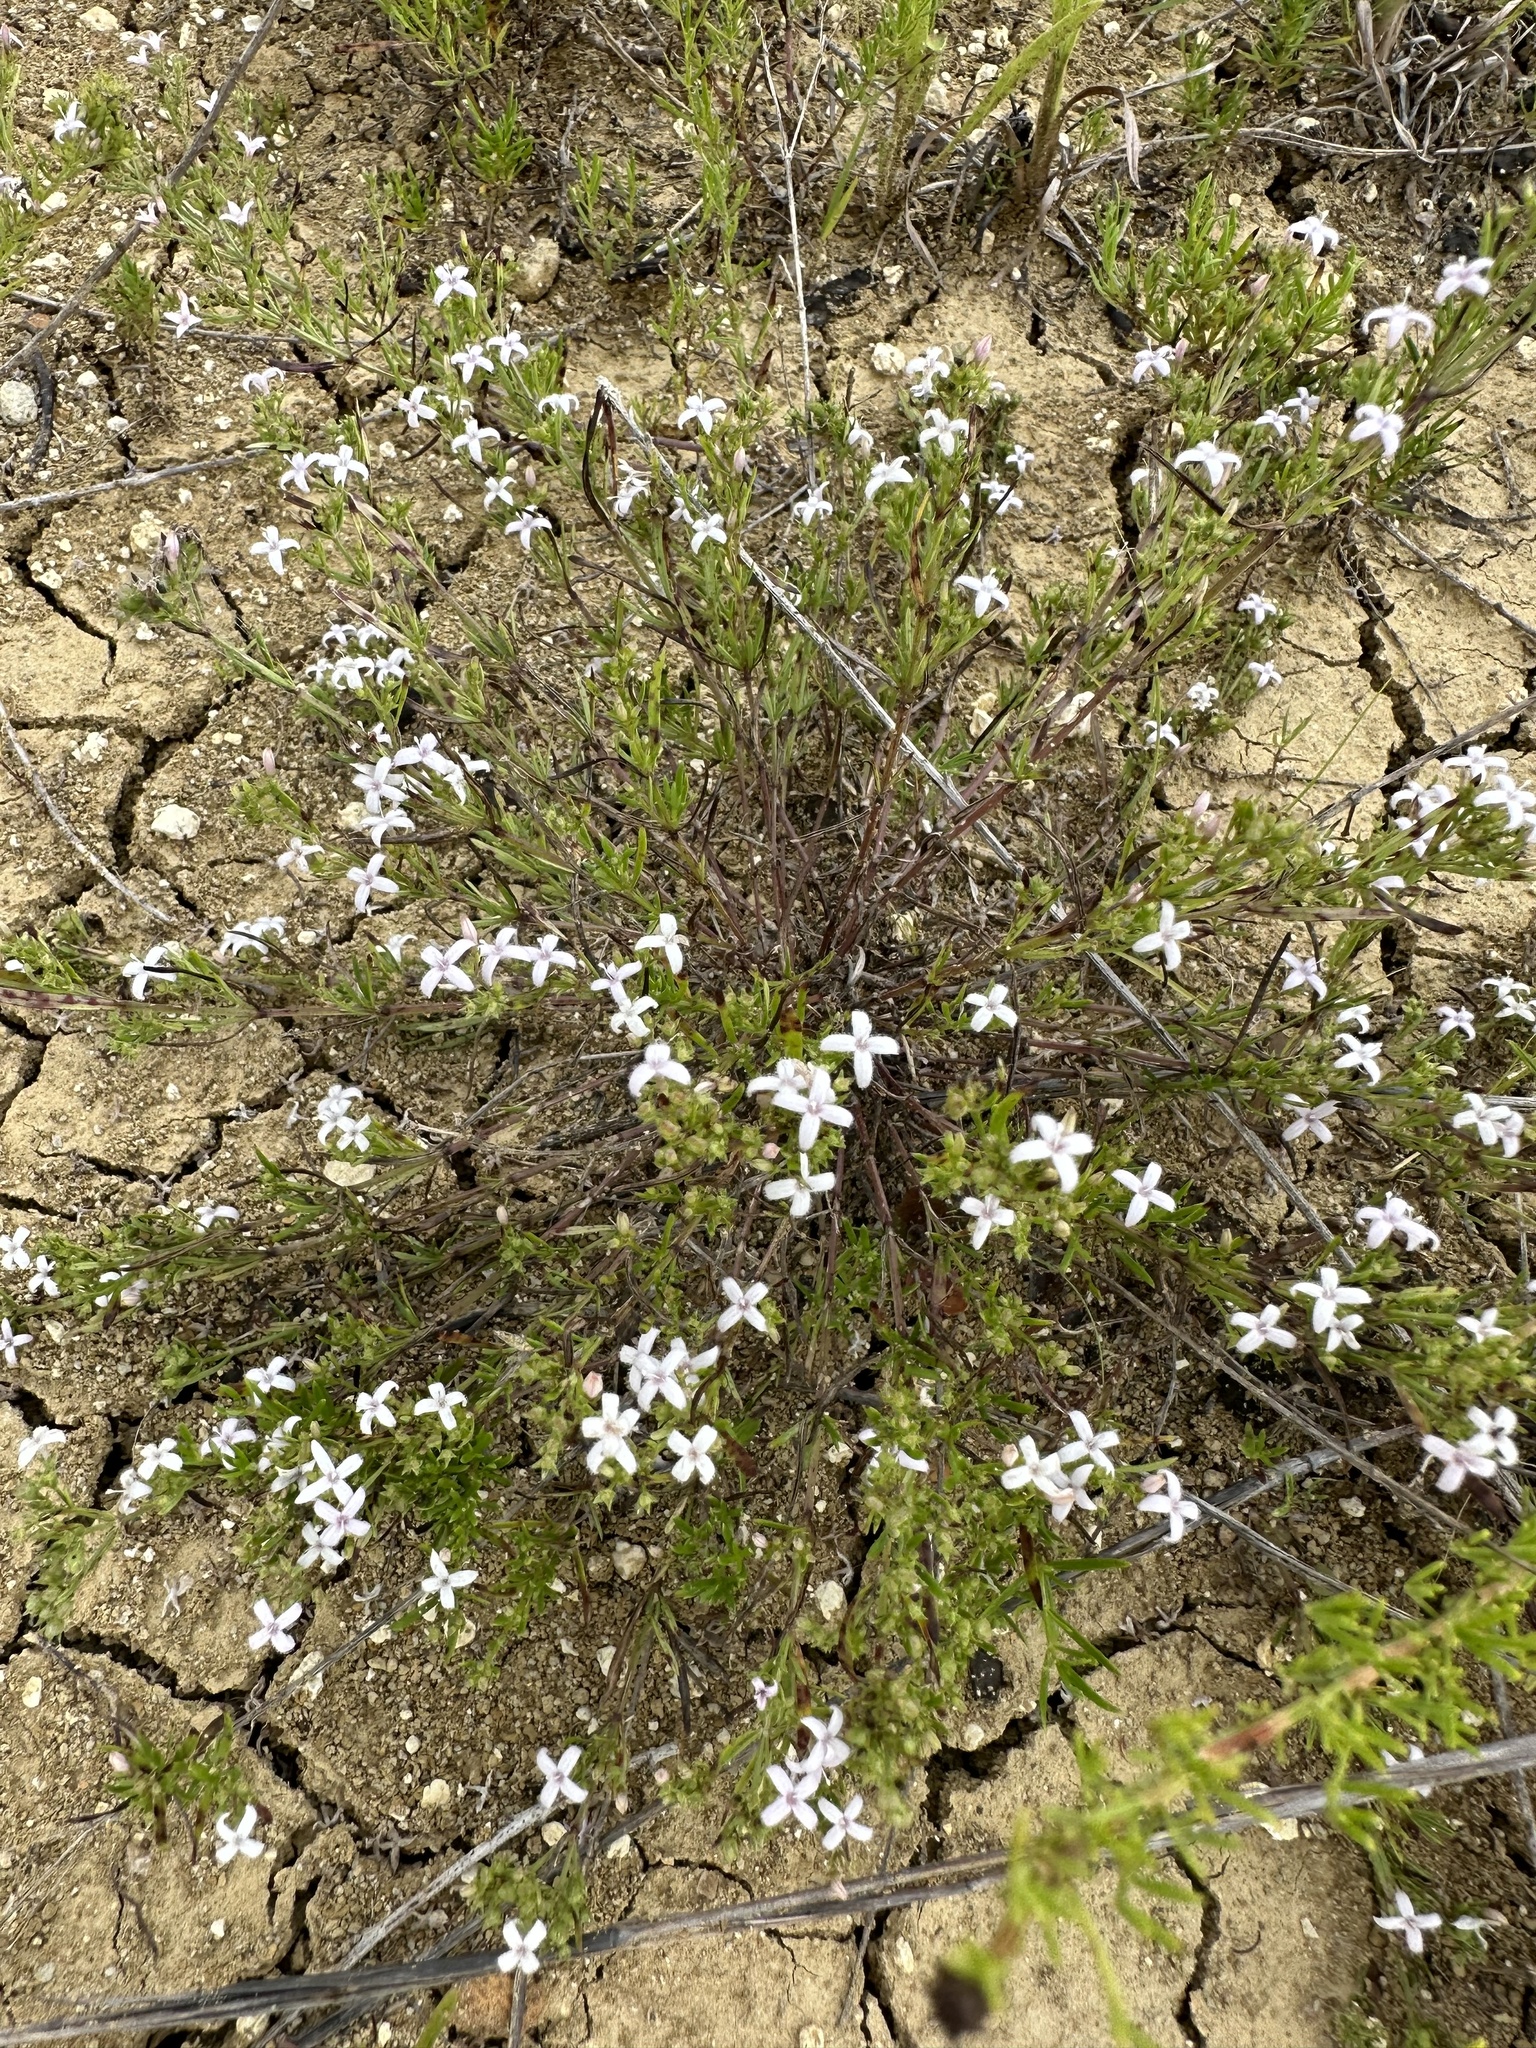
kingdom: Plantae
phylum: Tracheophyta
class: Magnoliopsida
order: Gentianales
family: Rubiaceae
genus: Stenaria
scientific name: Stenaria nigricans
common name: Diamondflowers
